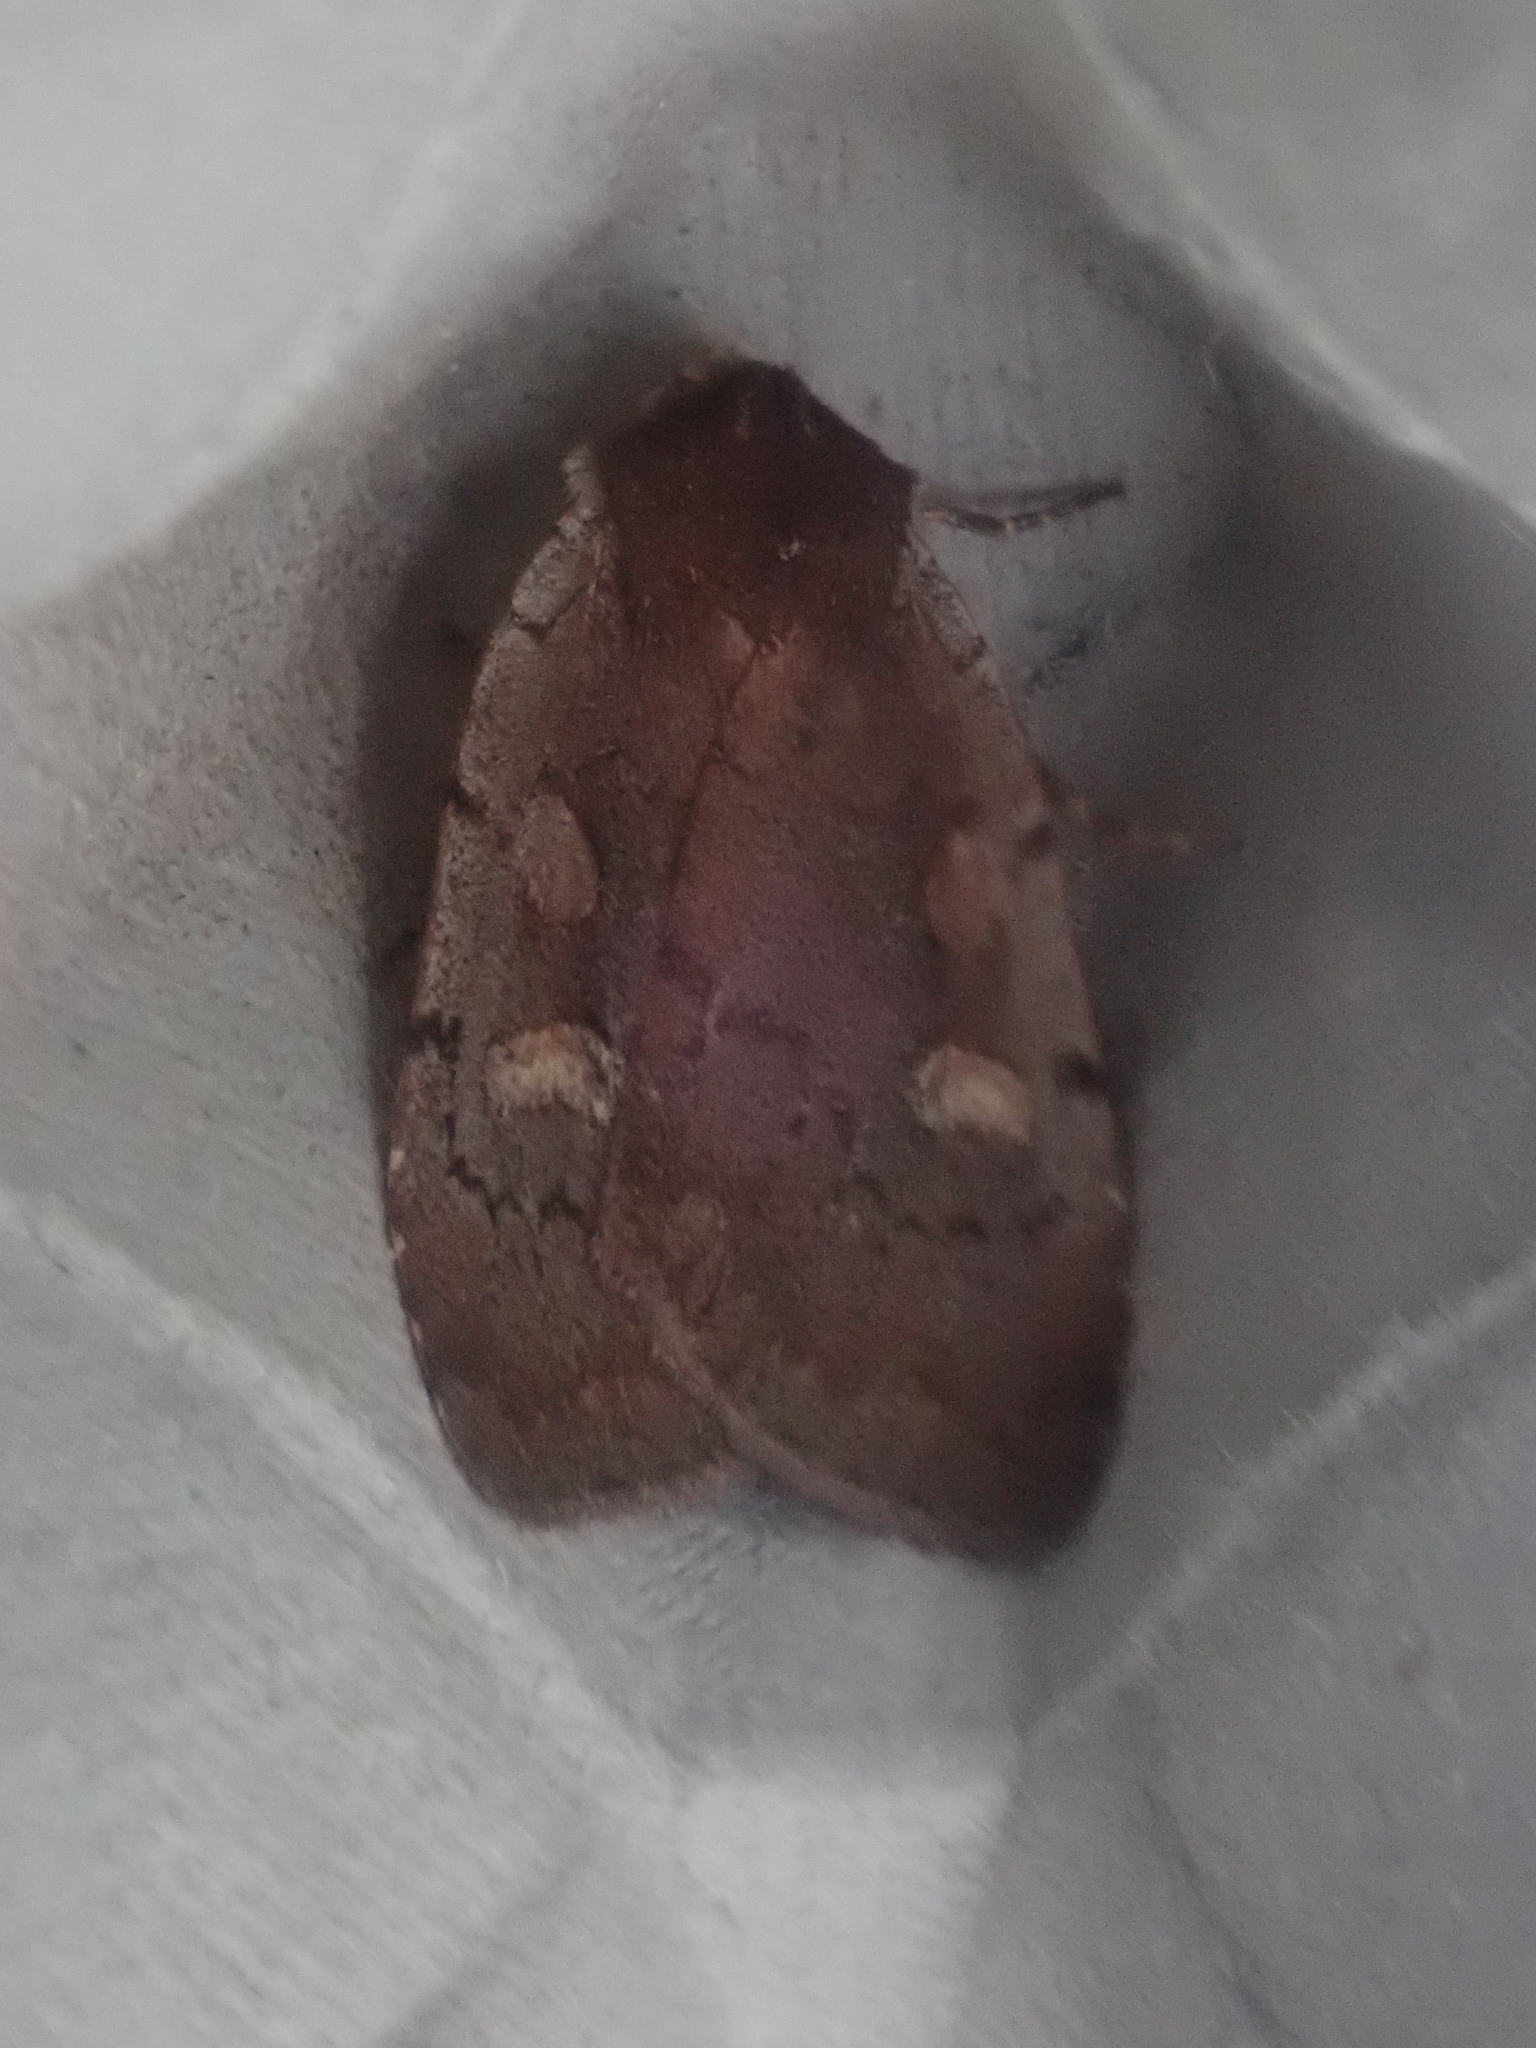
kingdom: Animalia
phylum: Arthropoda
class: Insecta
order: Lepidoptera
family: Noctuidae
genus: Xestia
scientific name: Xestia dilucida
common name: Dull reddish dart
